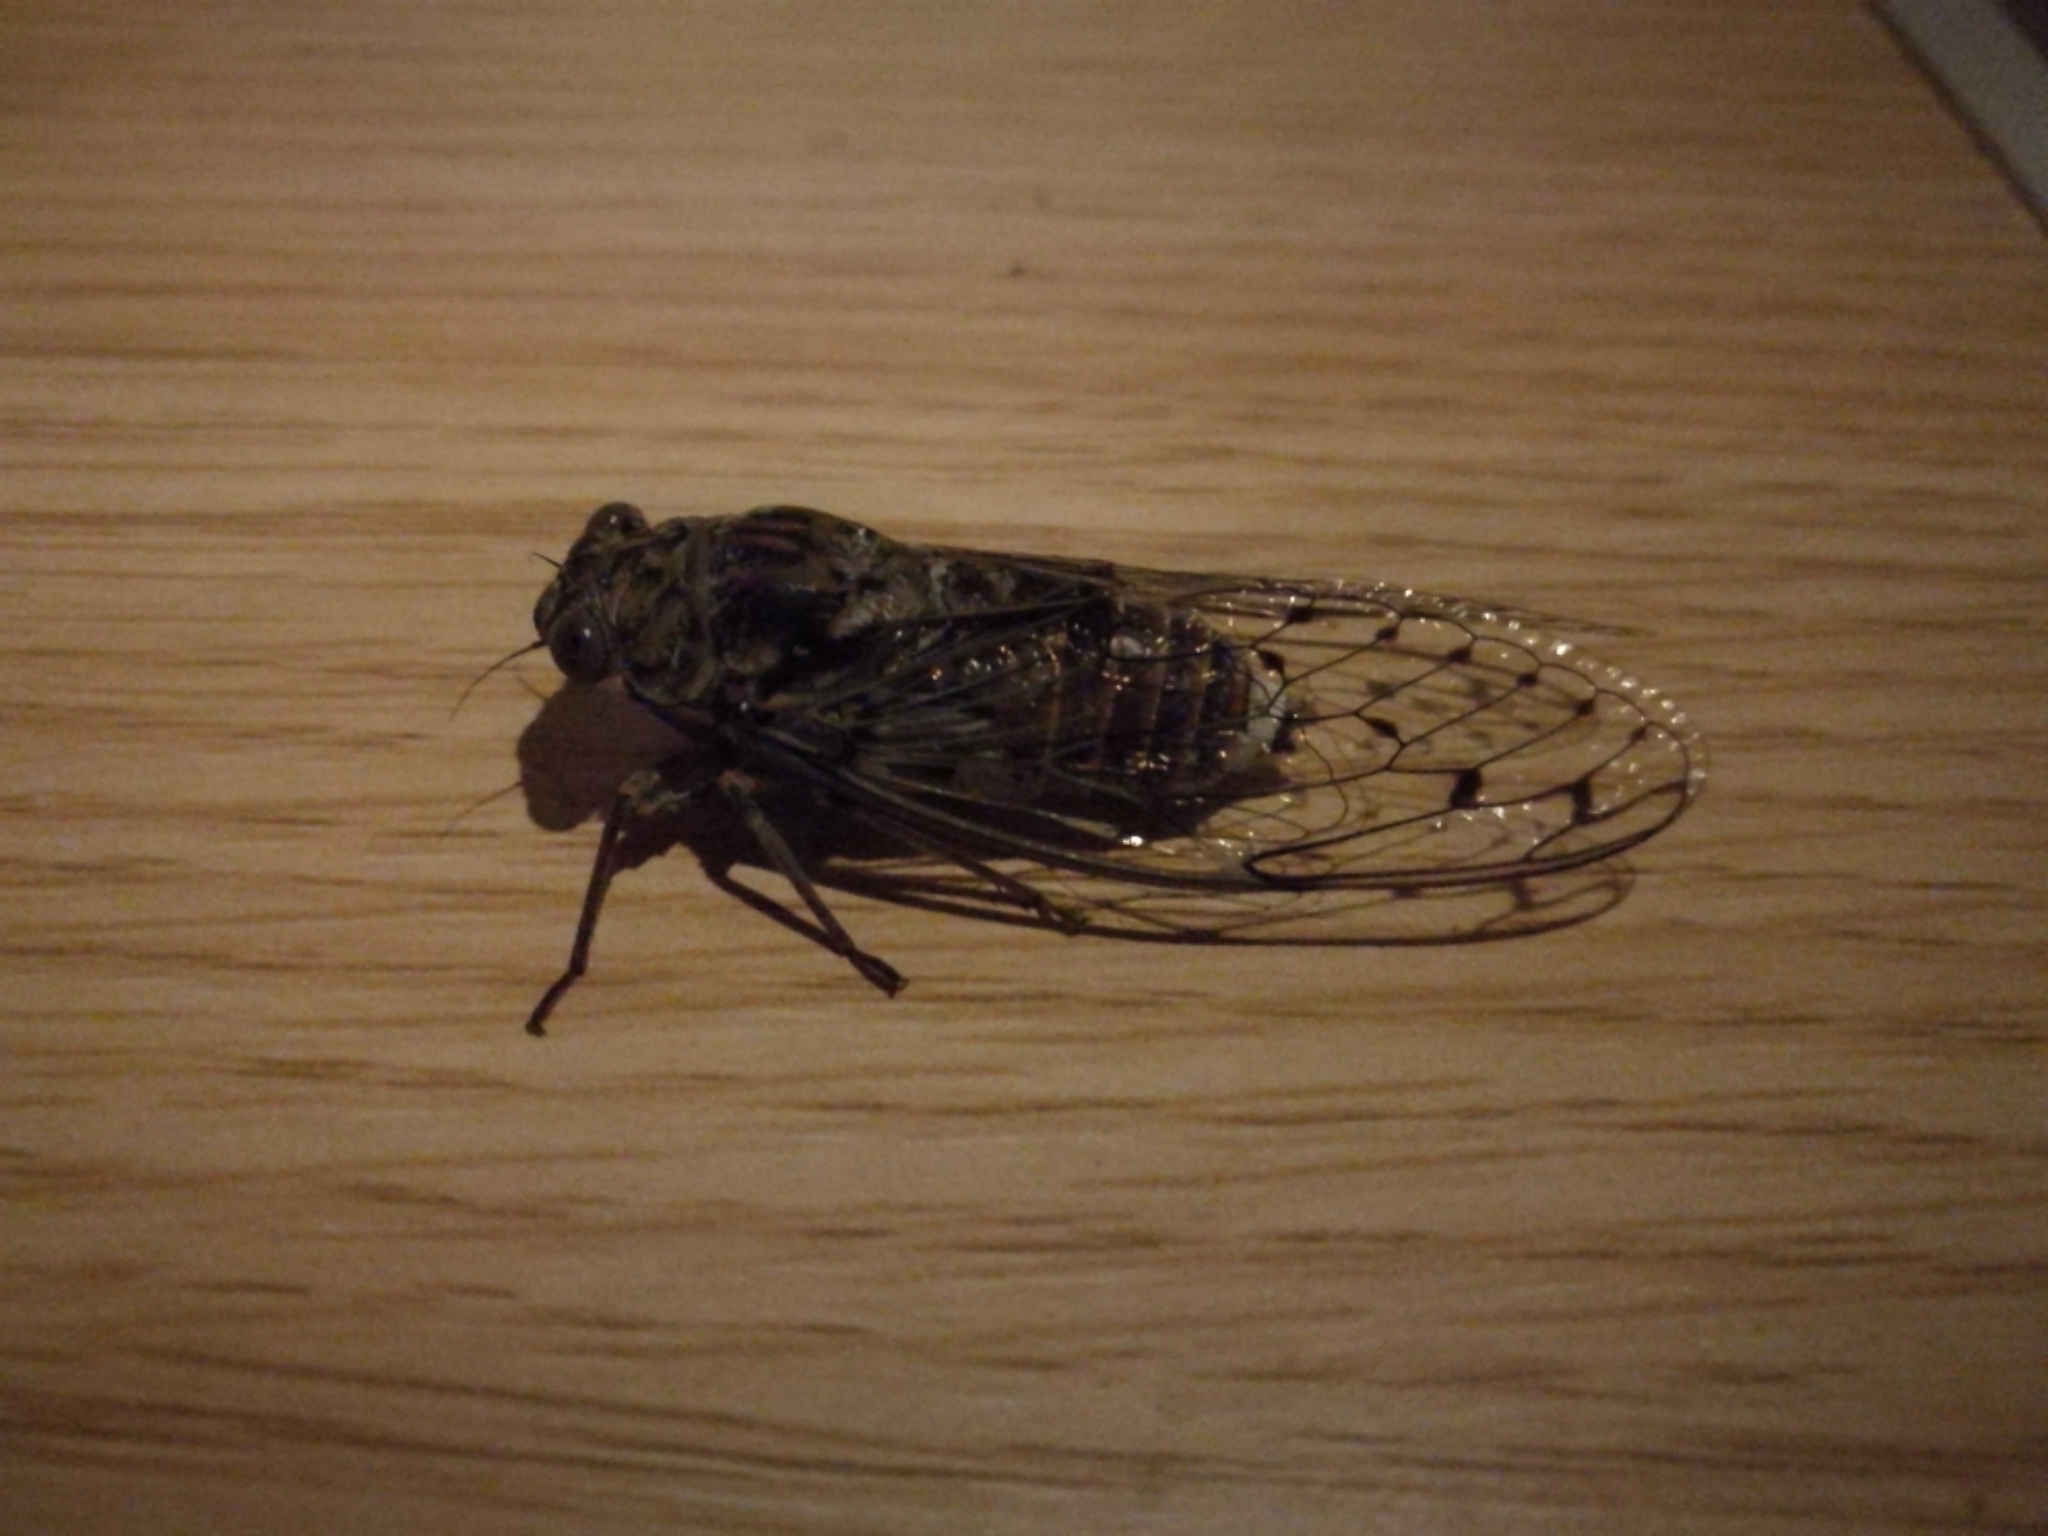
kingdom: Animalia
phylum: Arthropoda
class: Insecta
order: Hemiptera
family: Cicadidae
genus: Cicada
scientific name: Cicada orni
